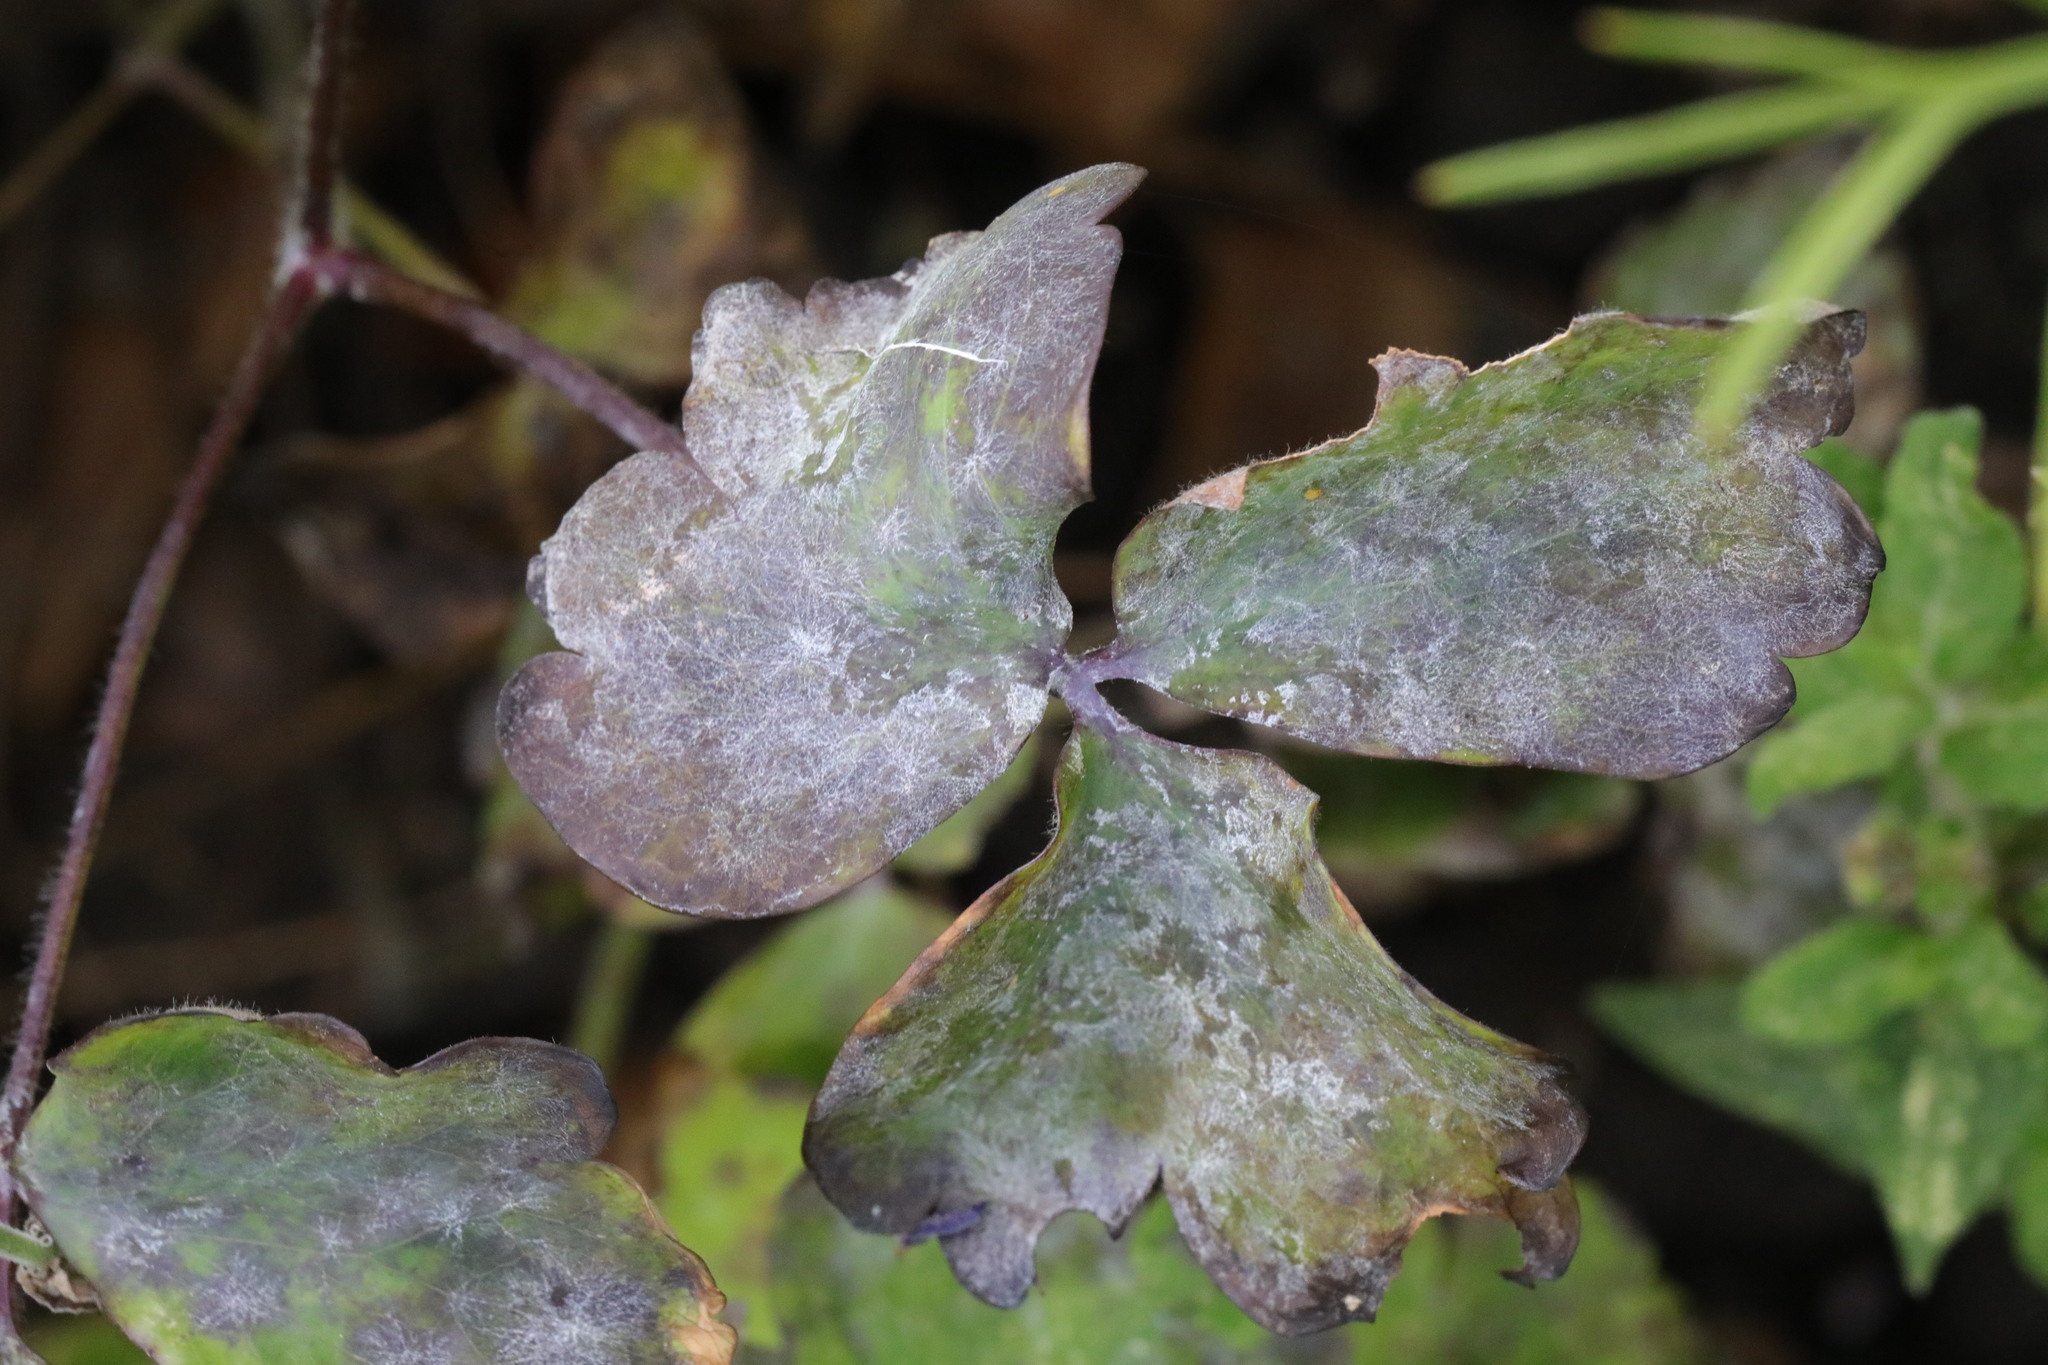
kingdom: Fungi
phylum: Ascomycota
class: Leotiomycetes
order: Helotiales
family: Erysiphaceae
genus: Erysiphe
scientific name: Erysiphe aquilegiae
